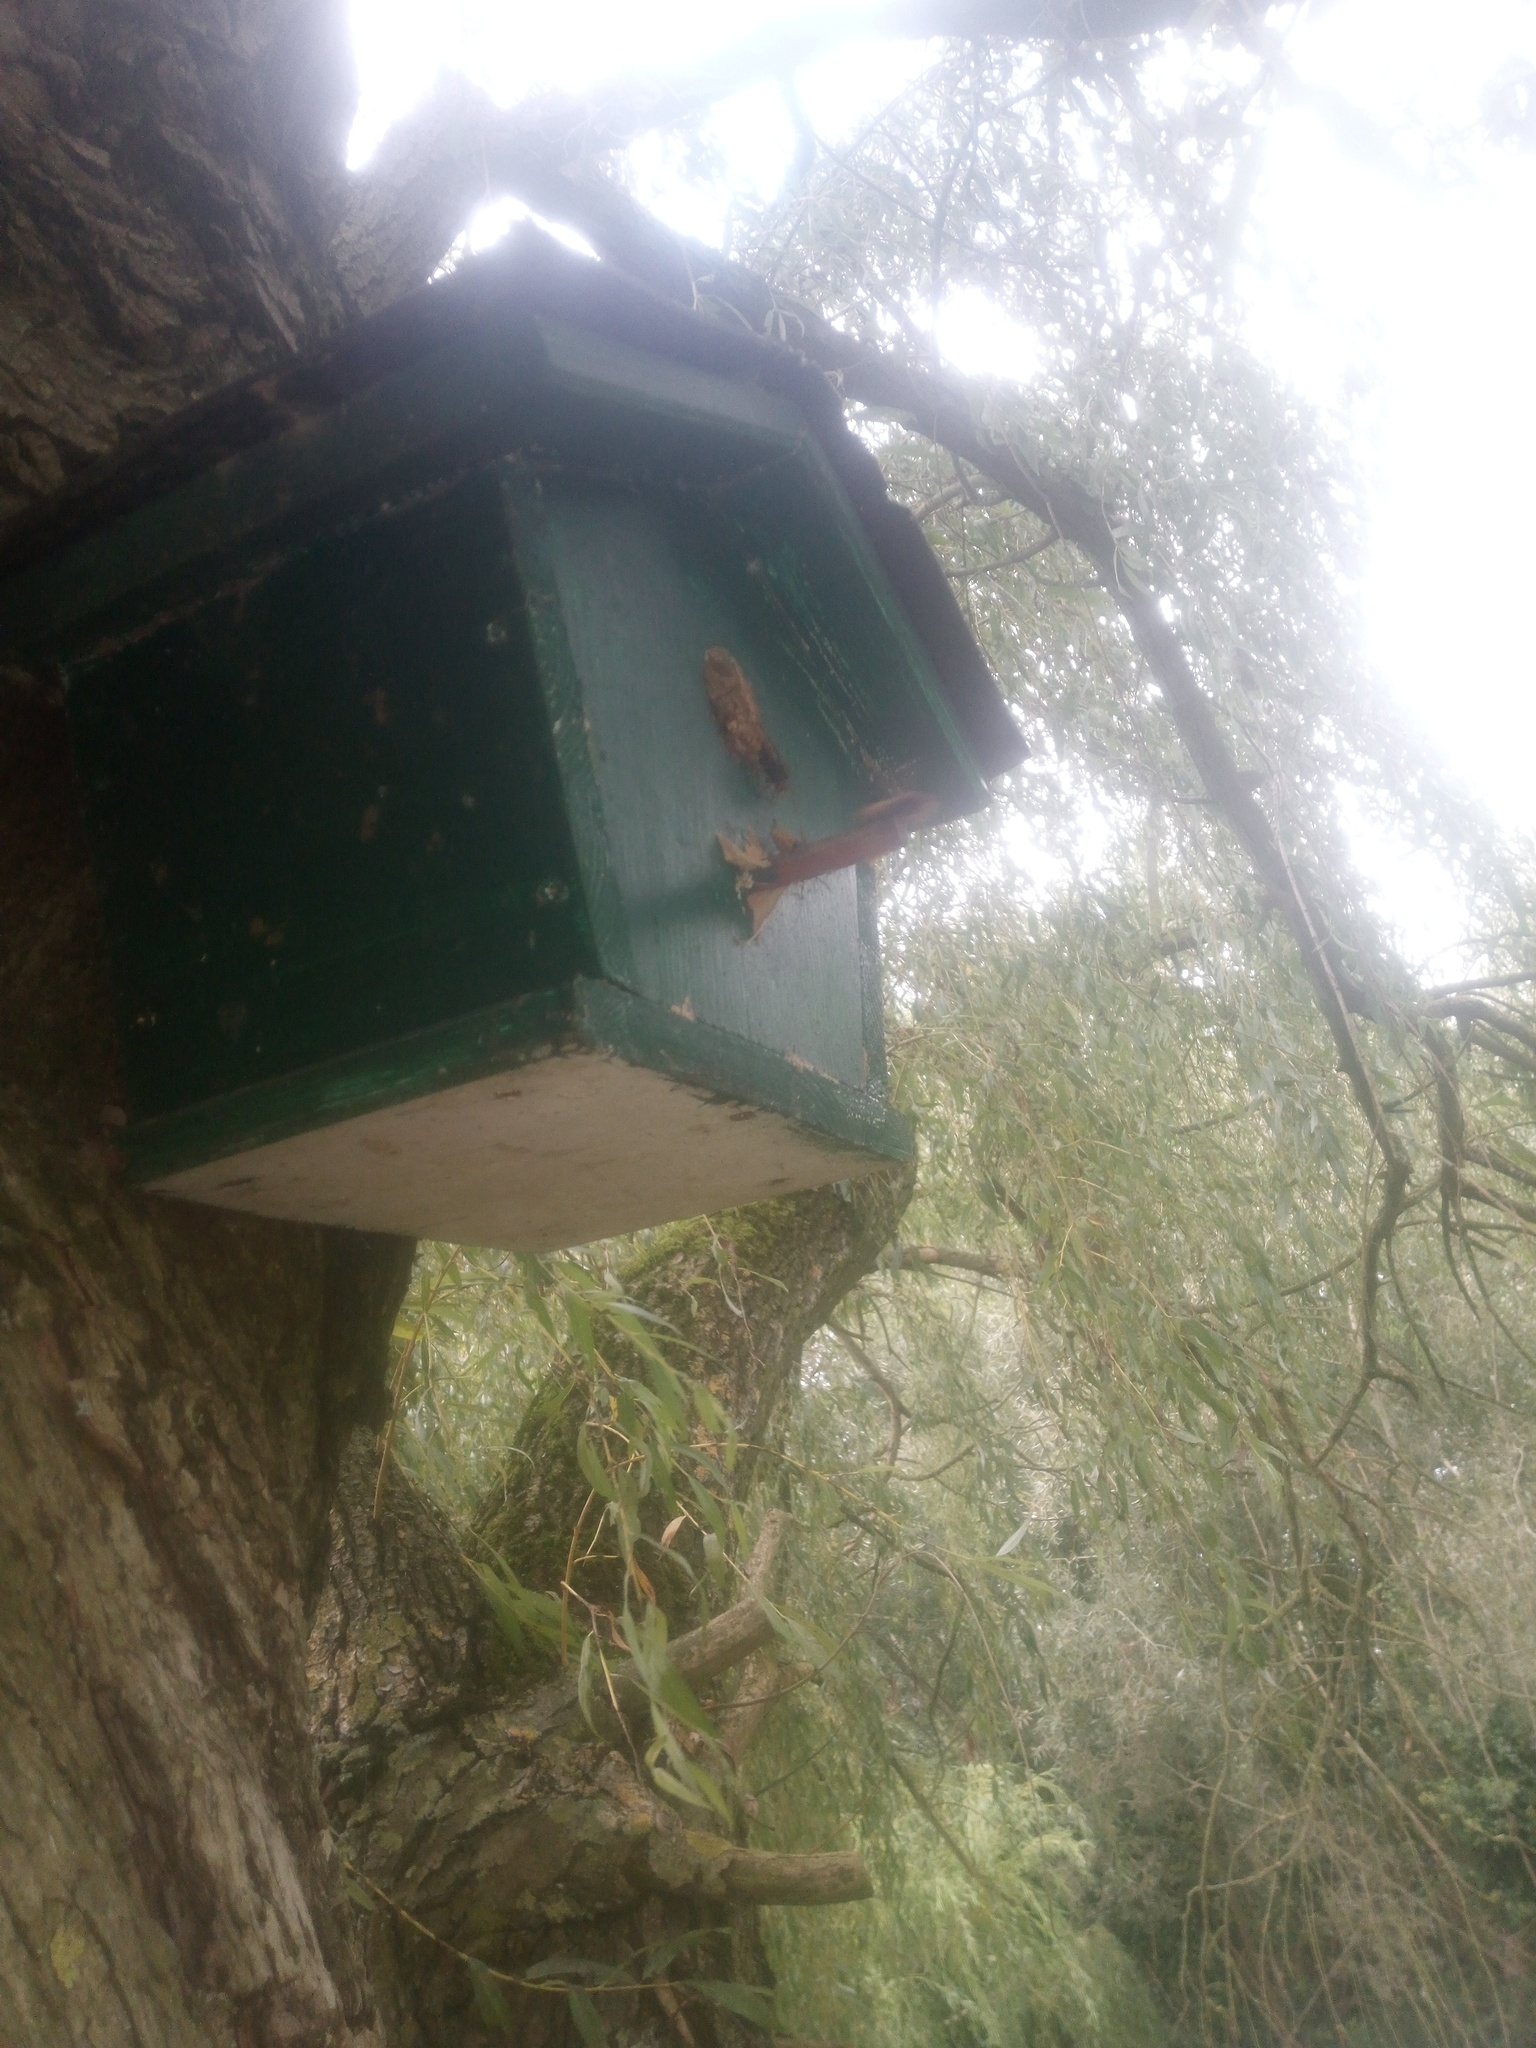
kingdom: Animalia
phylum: Arthropoda
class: Insecta
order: Hymenoptera
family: Vespidae
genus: Vespa
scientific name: Vespa crabro
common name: Hornet
